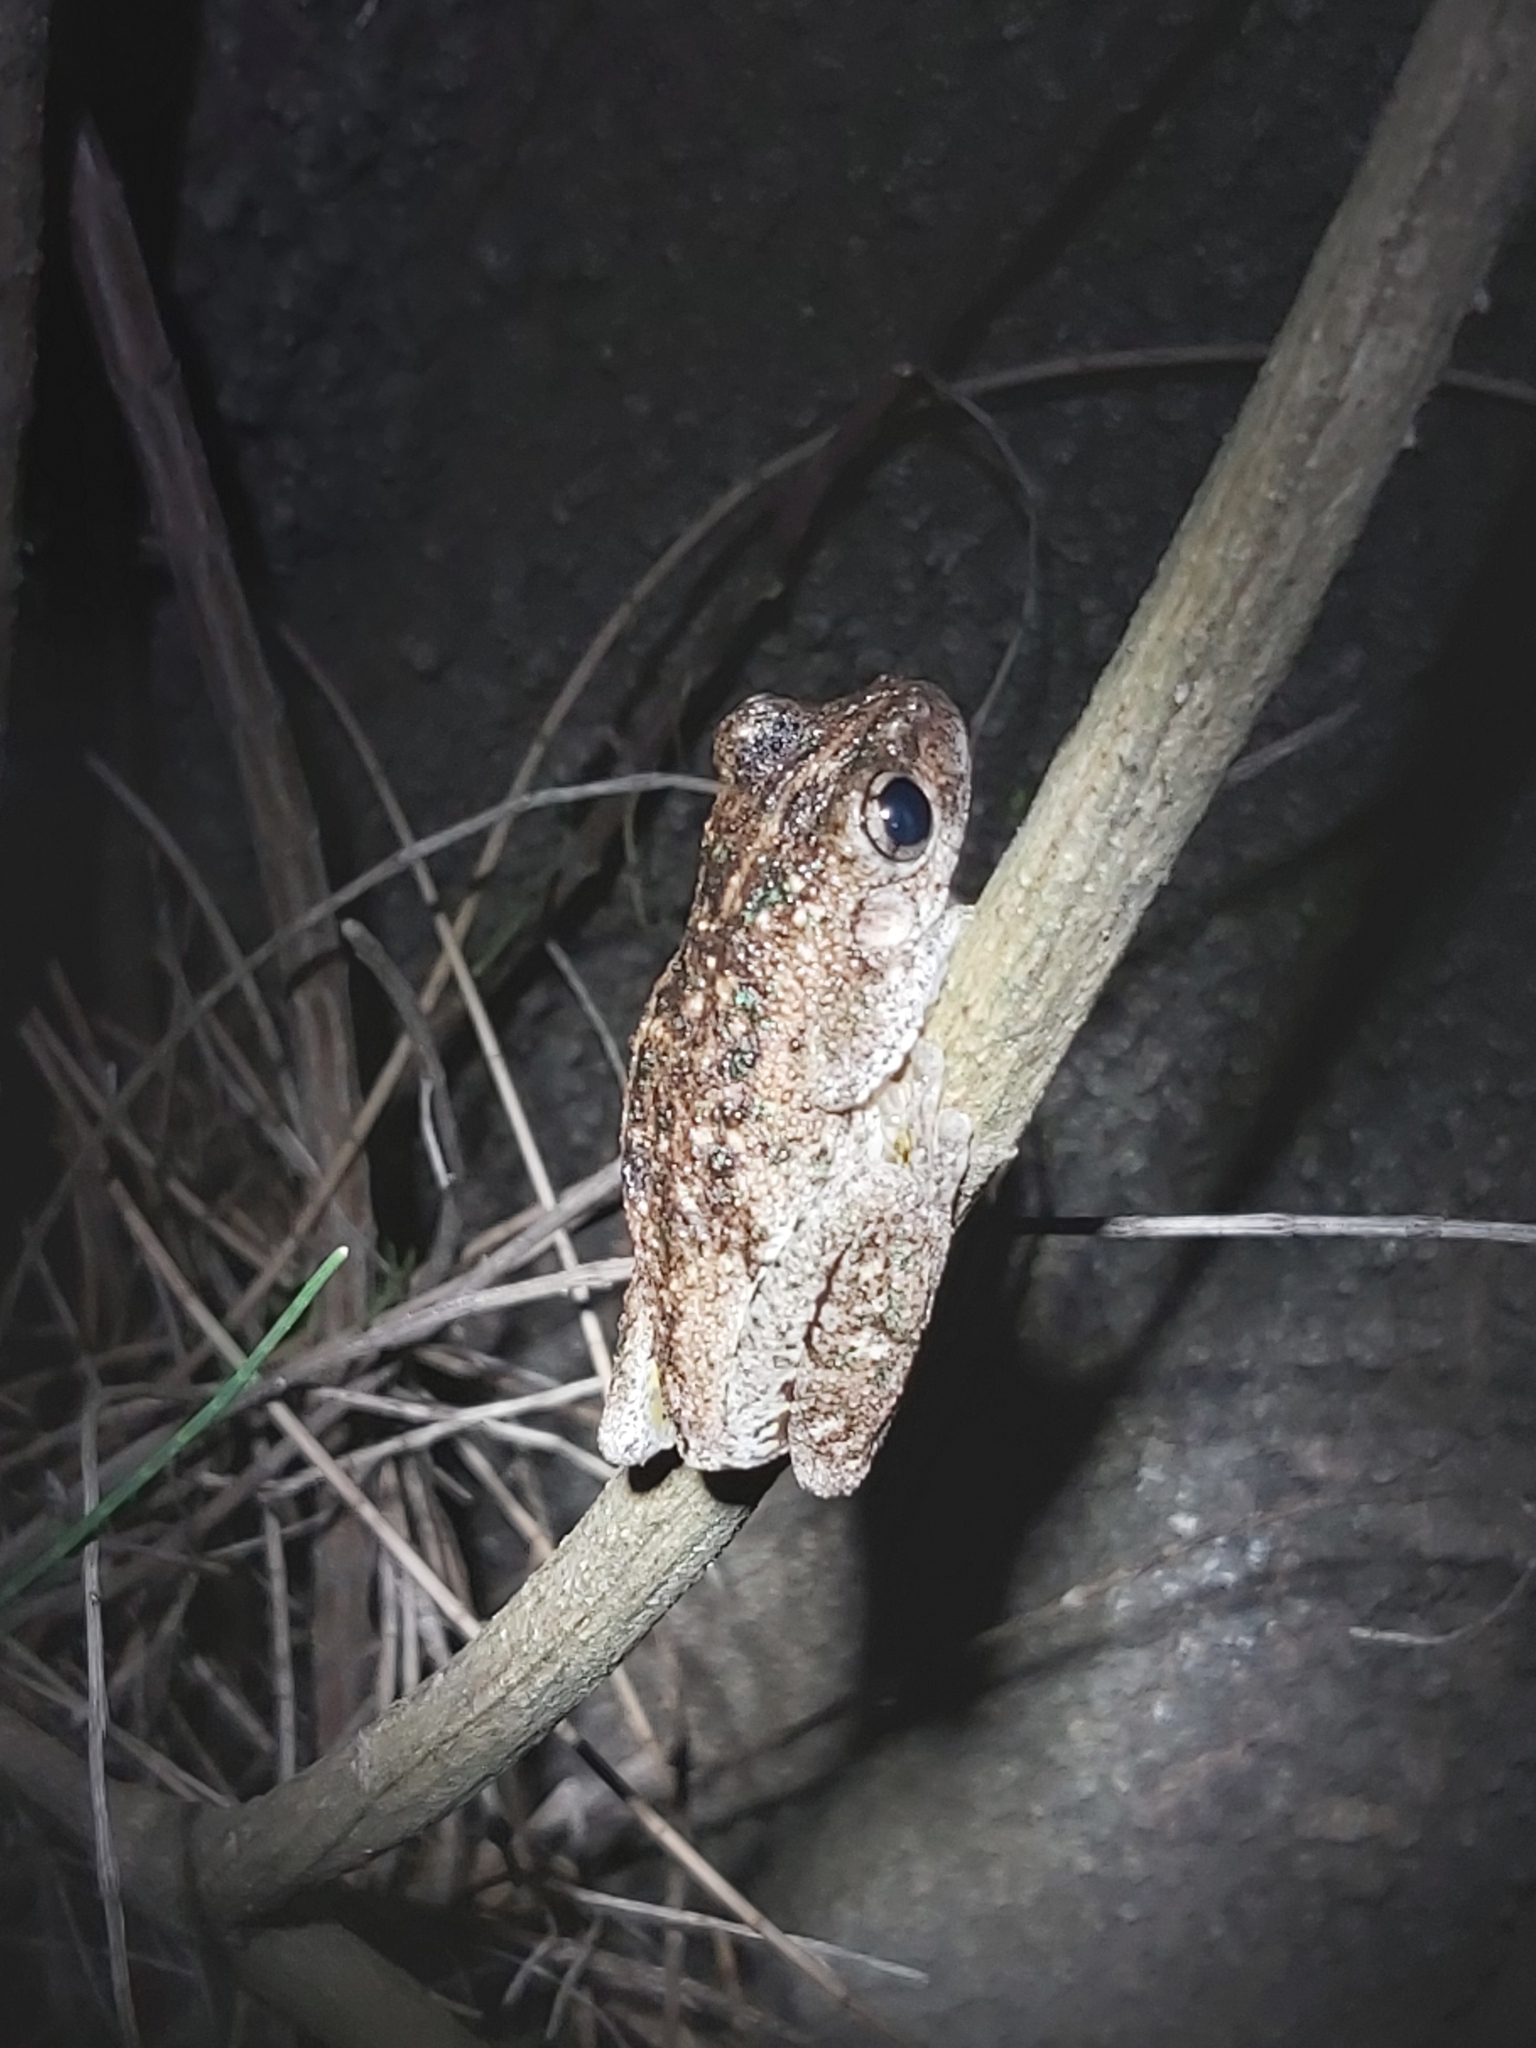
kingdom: Animalia
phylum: Chordata
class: Amphibia
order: Anura
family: Pelodryadidae
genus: Litoria
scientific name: Litoria peronii
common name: Emerald spotted treefrog
